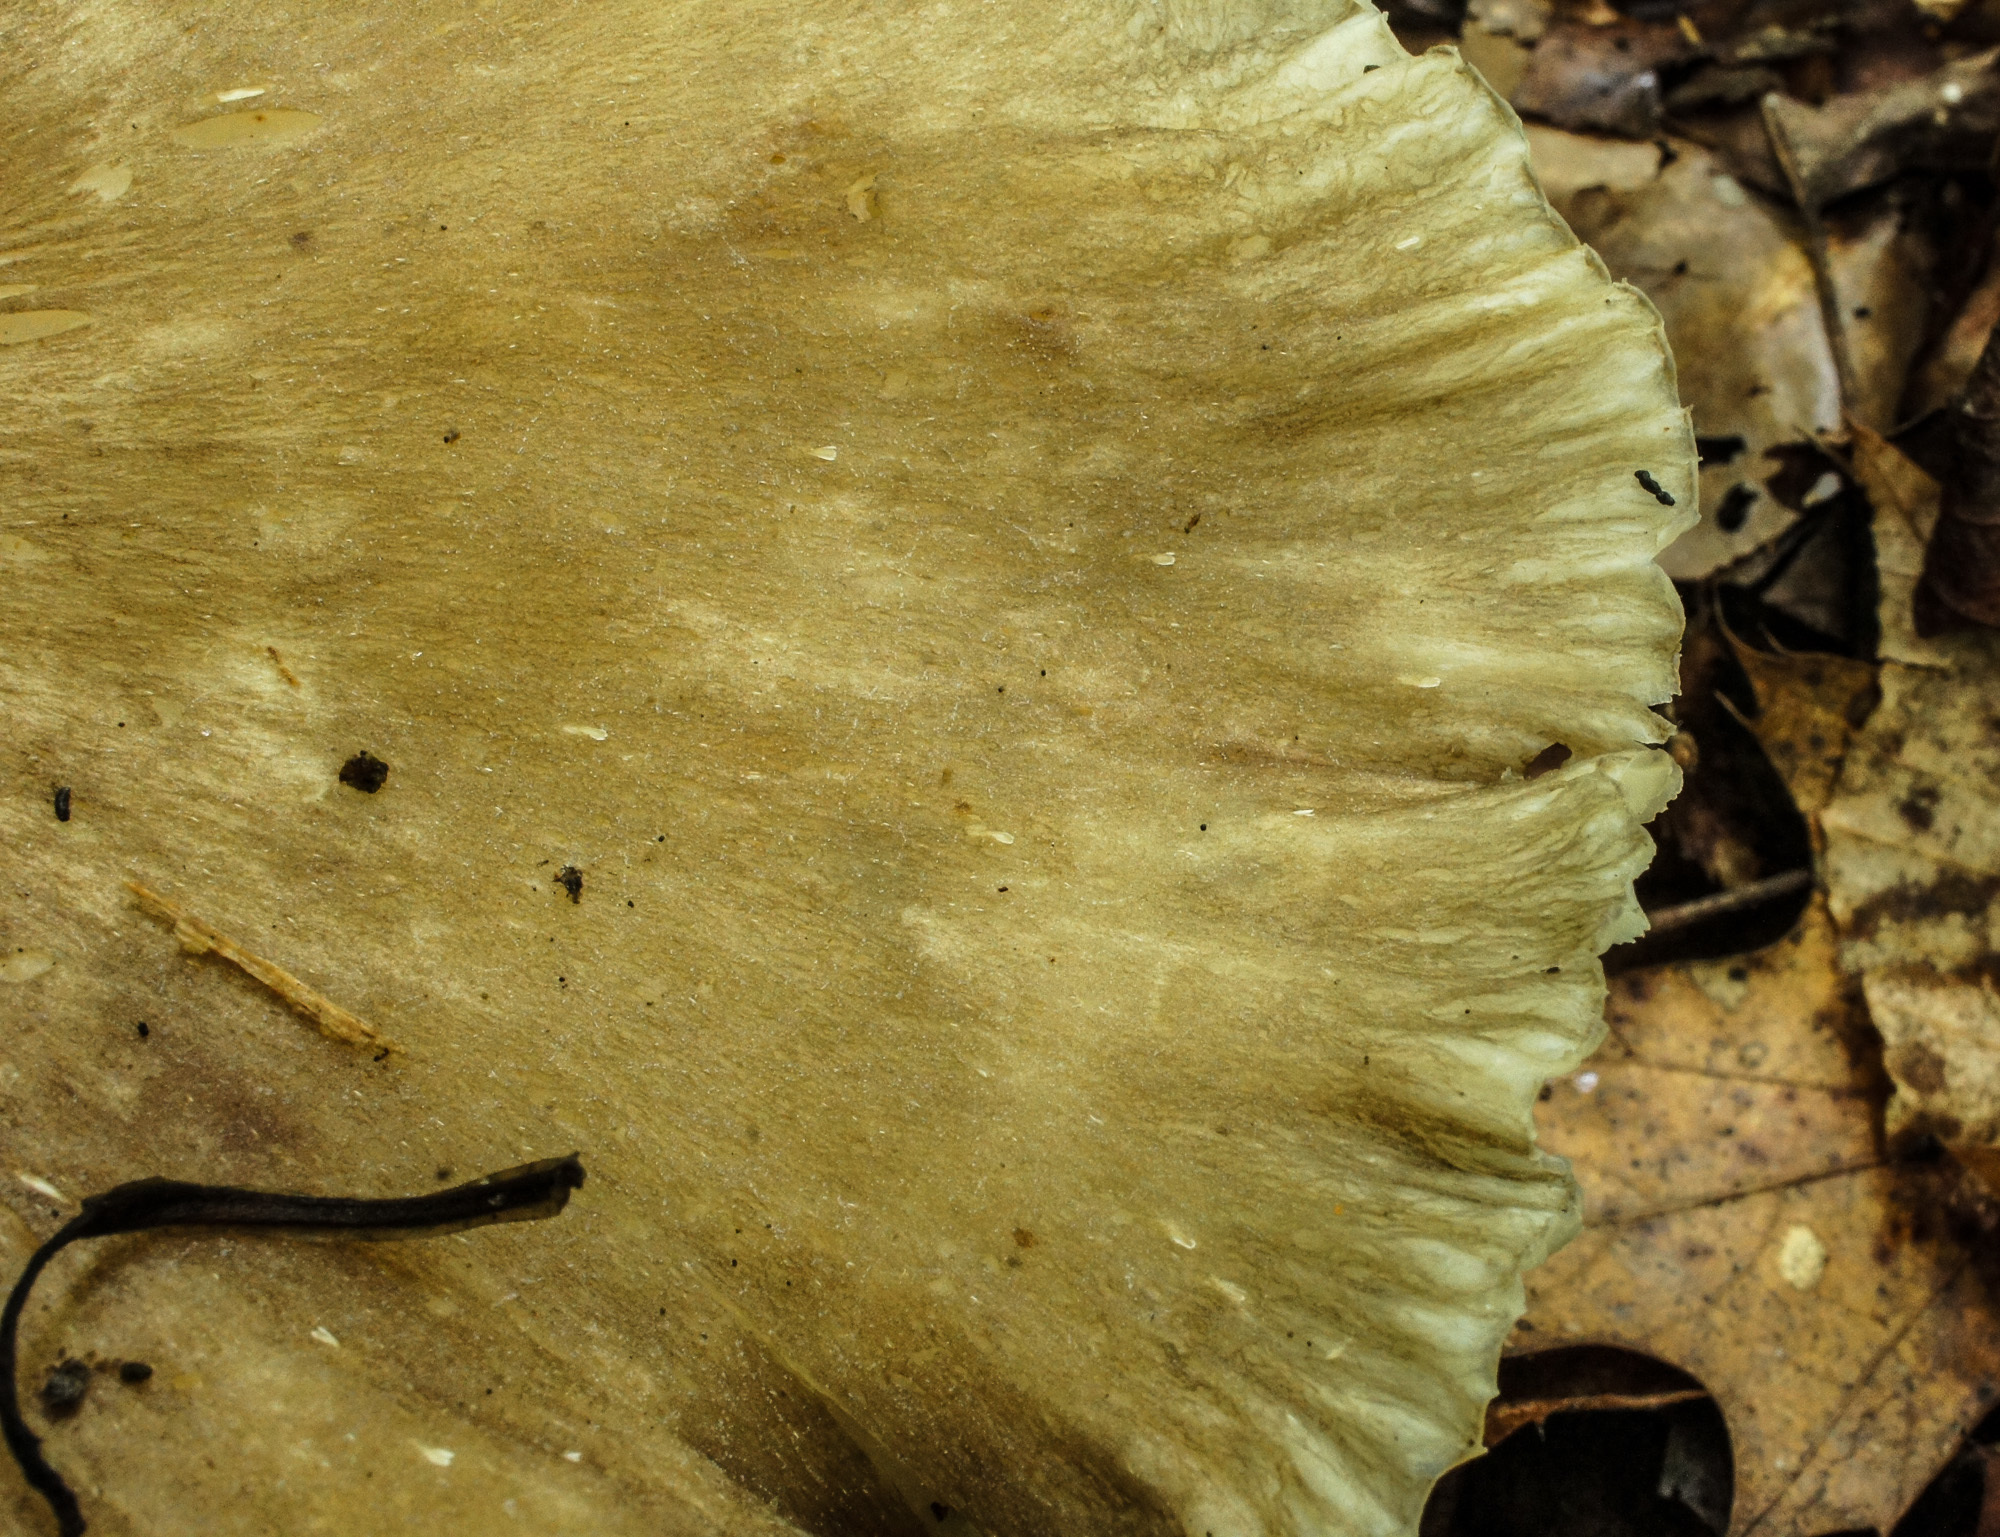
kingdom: Fungi
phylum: Basidiomycota
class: Agaricomycetes
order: Agaricales
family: Tricholomataceae
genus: Megacollybia
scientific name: Megacollybia rodmanii
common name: Eastern american platterful mushroom
